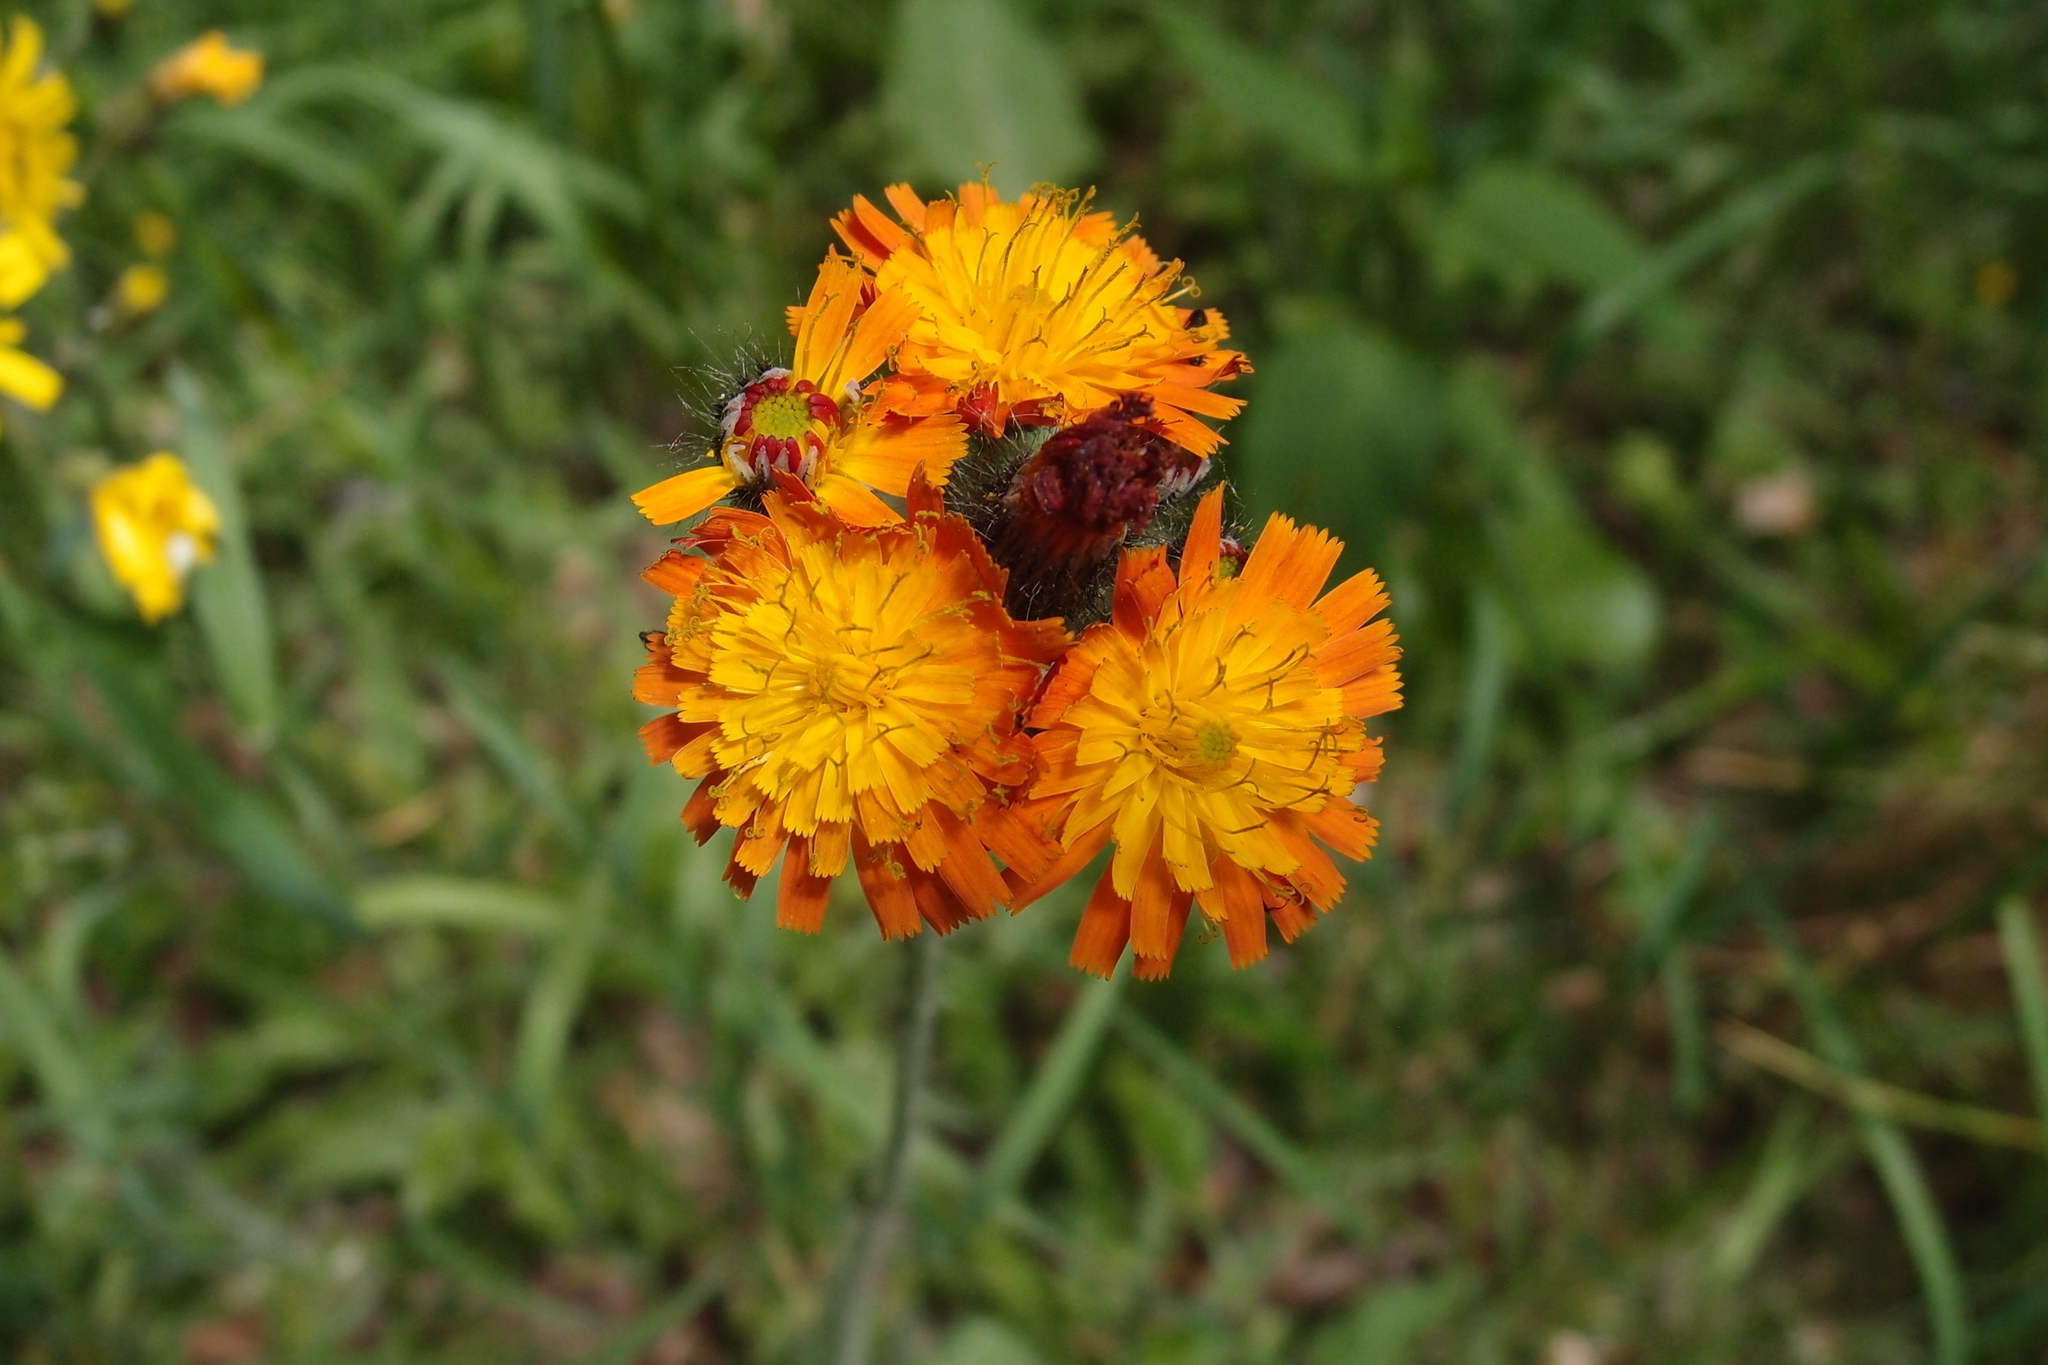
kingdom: Plantae
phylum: Tracheophyta
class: Magnoliopsida
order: Asterales
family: Asteraceae
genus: Pilosella
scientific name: Pilosella aurantiaca
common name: Fox-and-cubs
